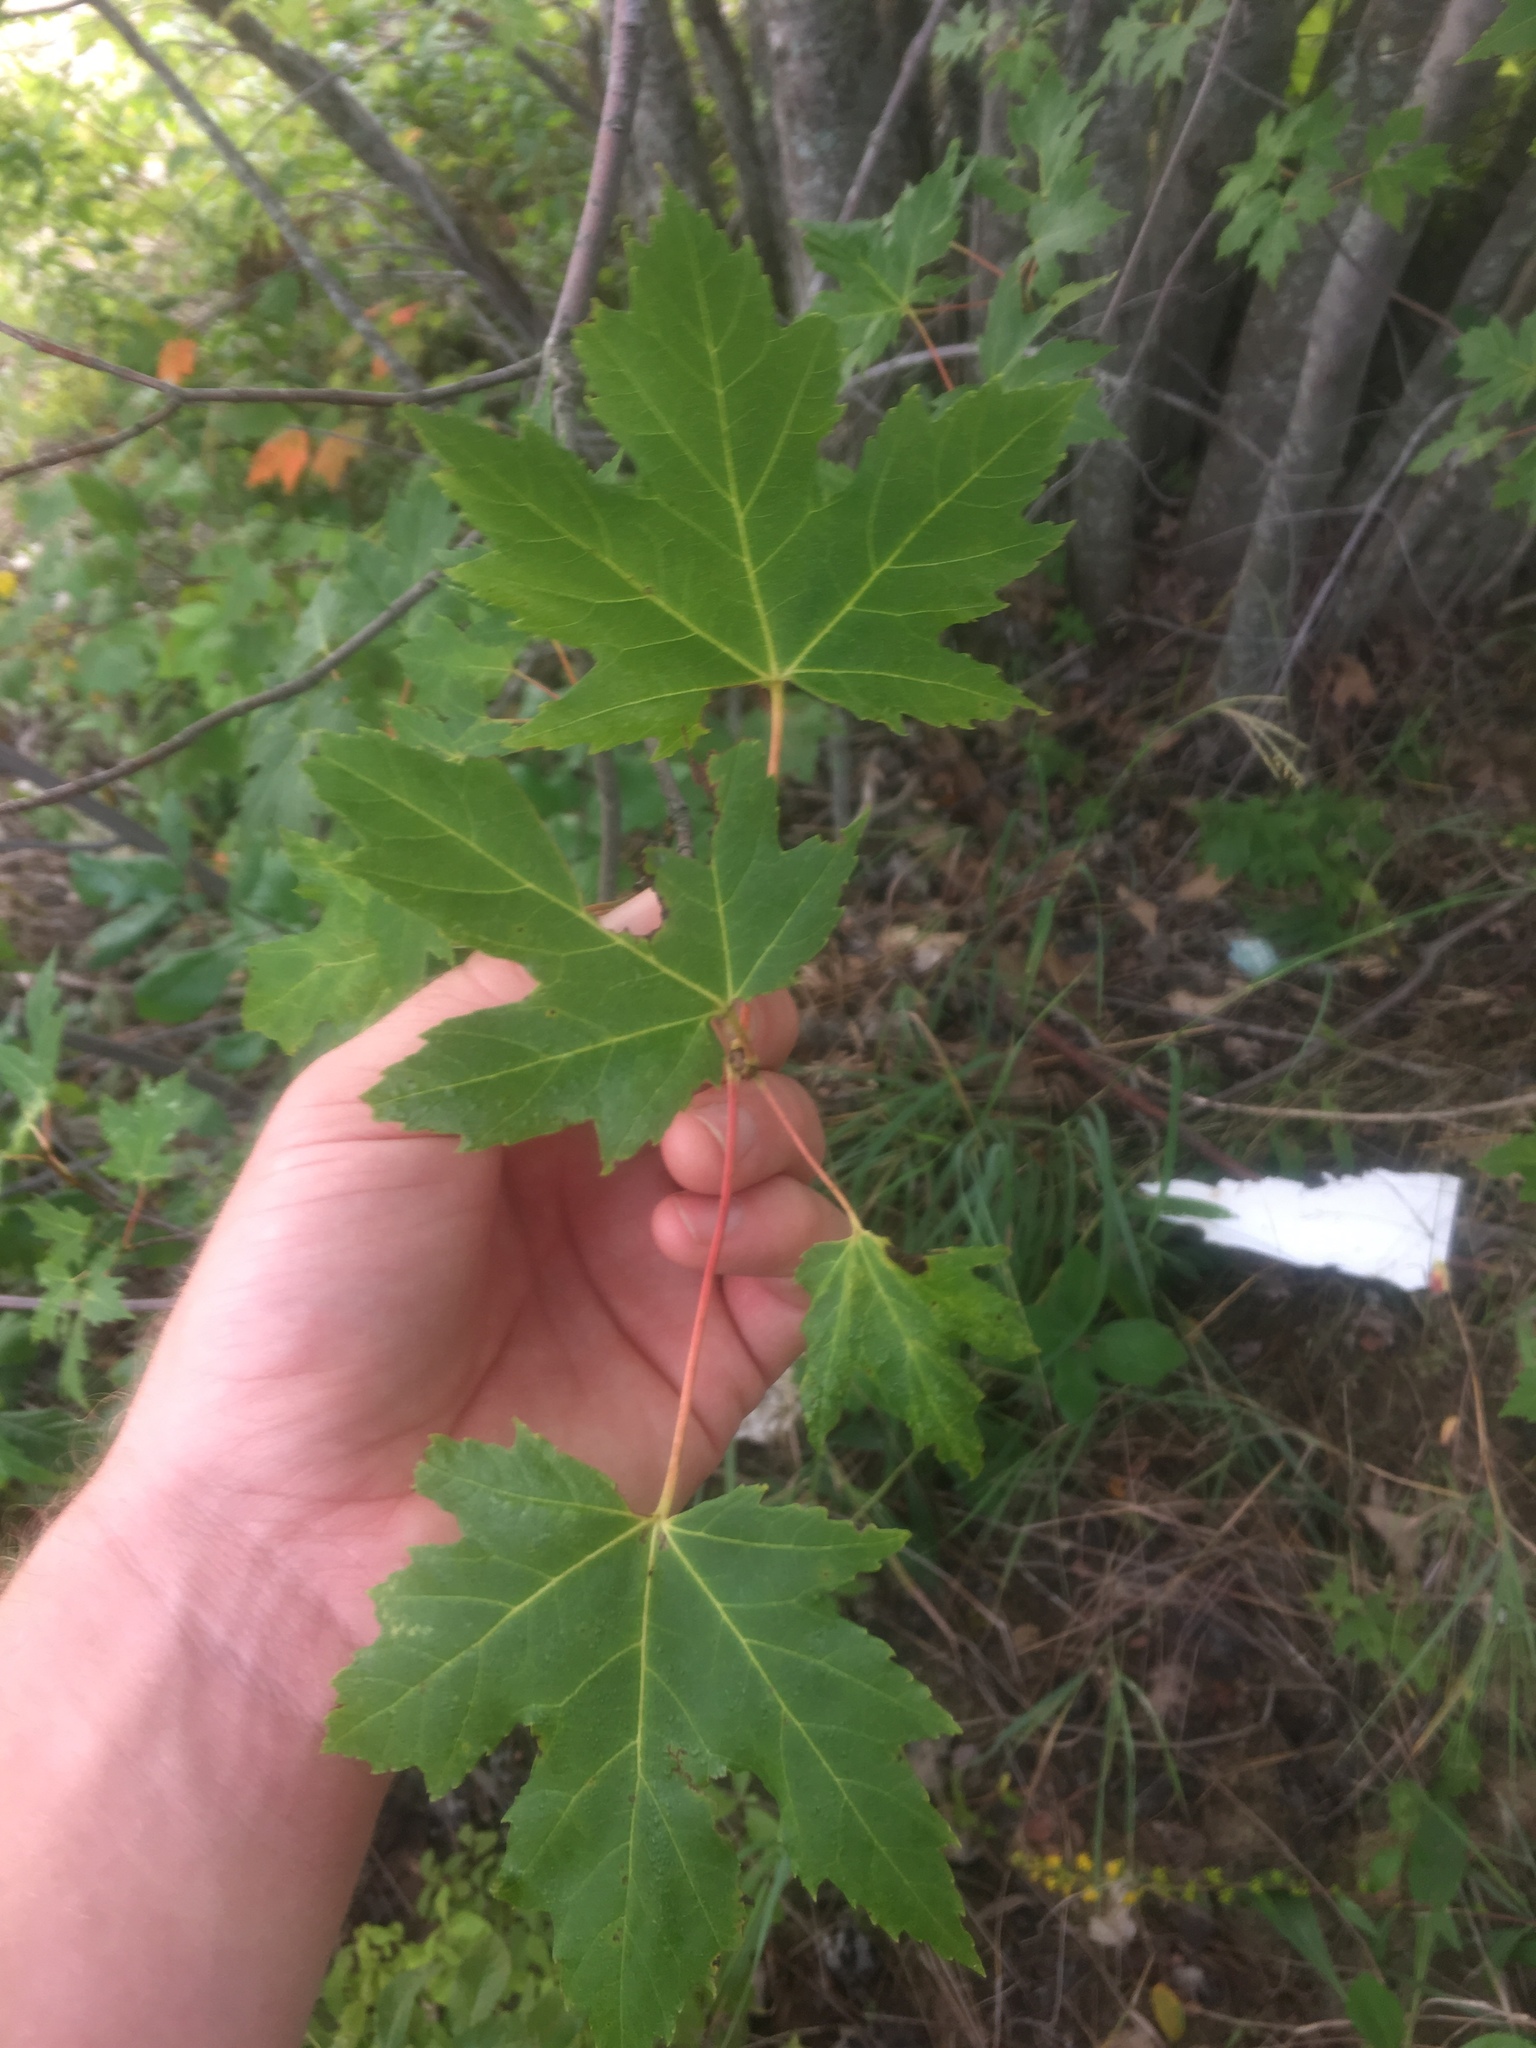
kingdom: Plantae
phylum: Tracheophyta
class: Magnoliopsida
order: Sapindales
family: Sapindaceae
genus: Acer
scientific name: Acer saccharinum
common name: Silver maple
